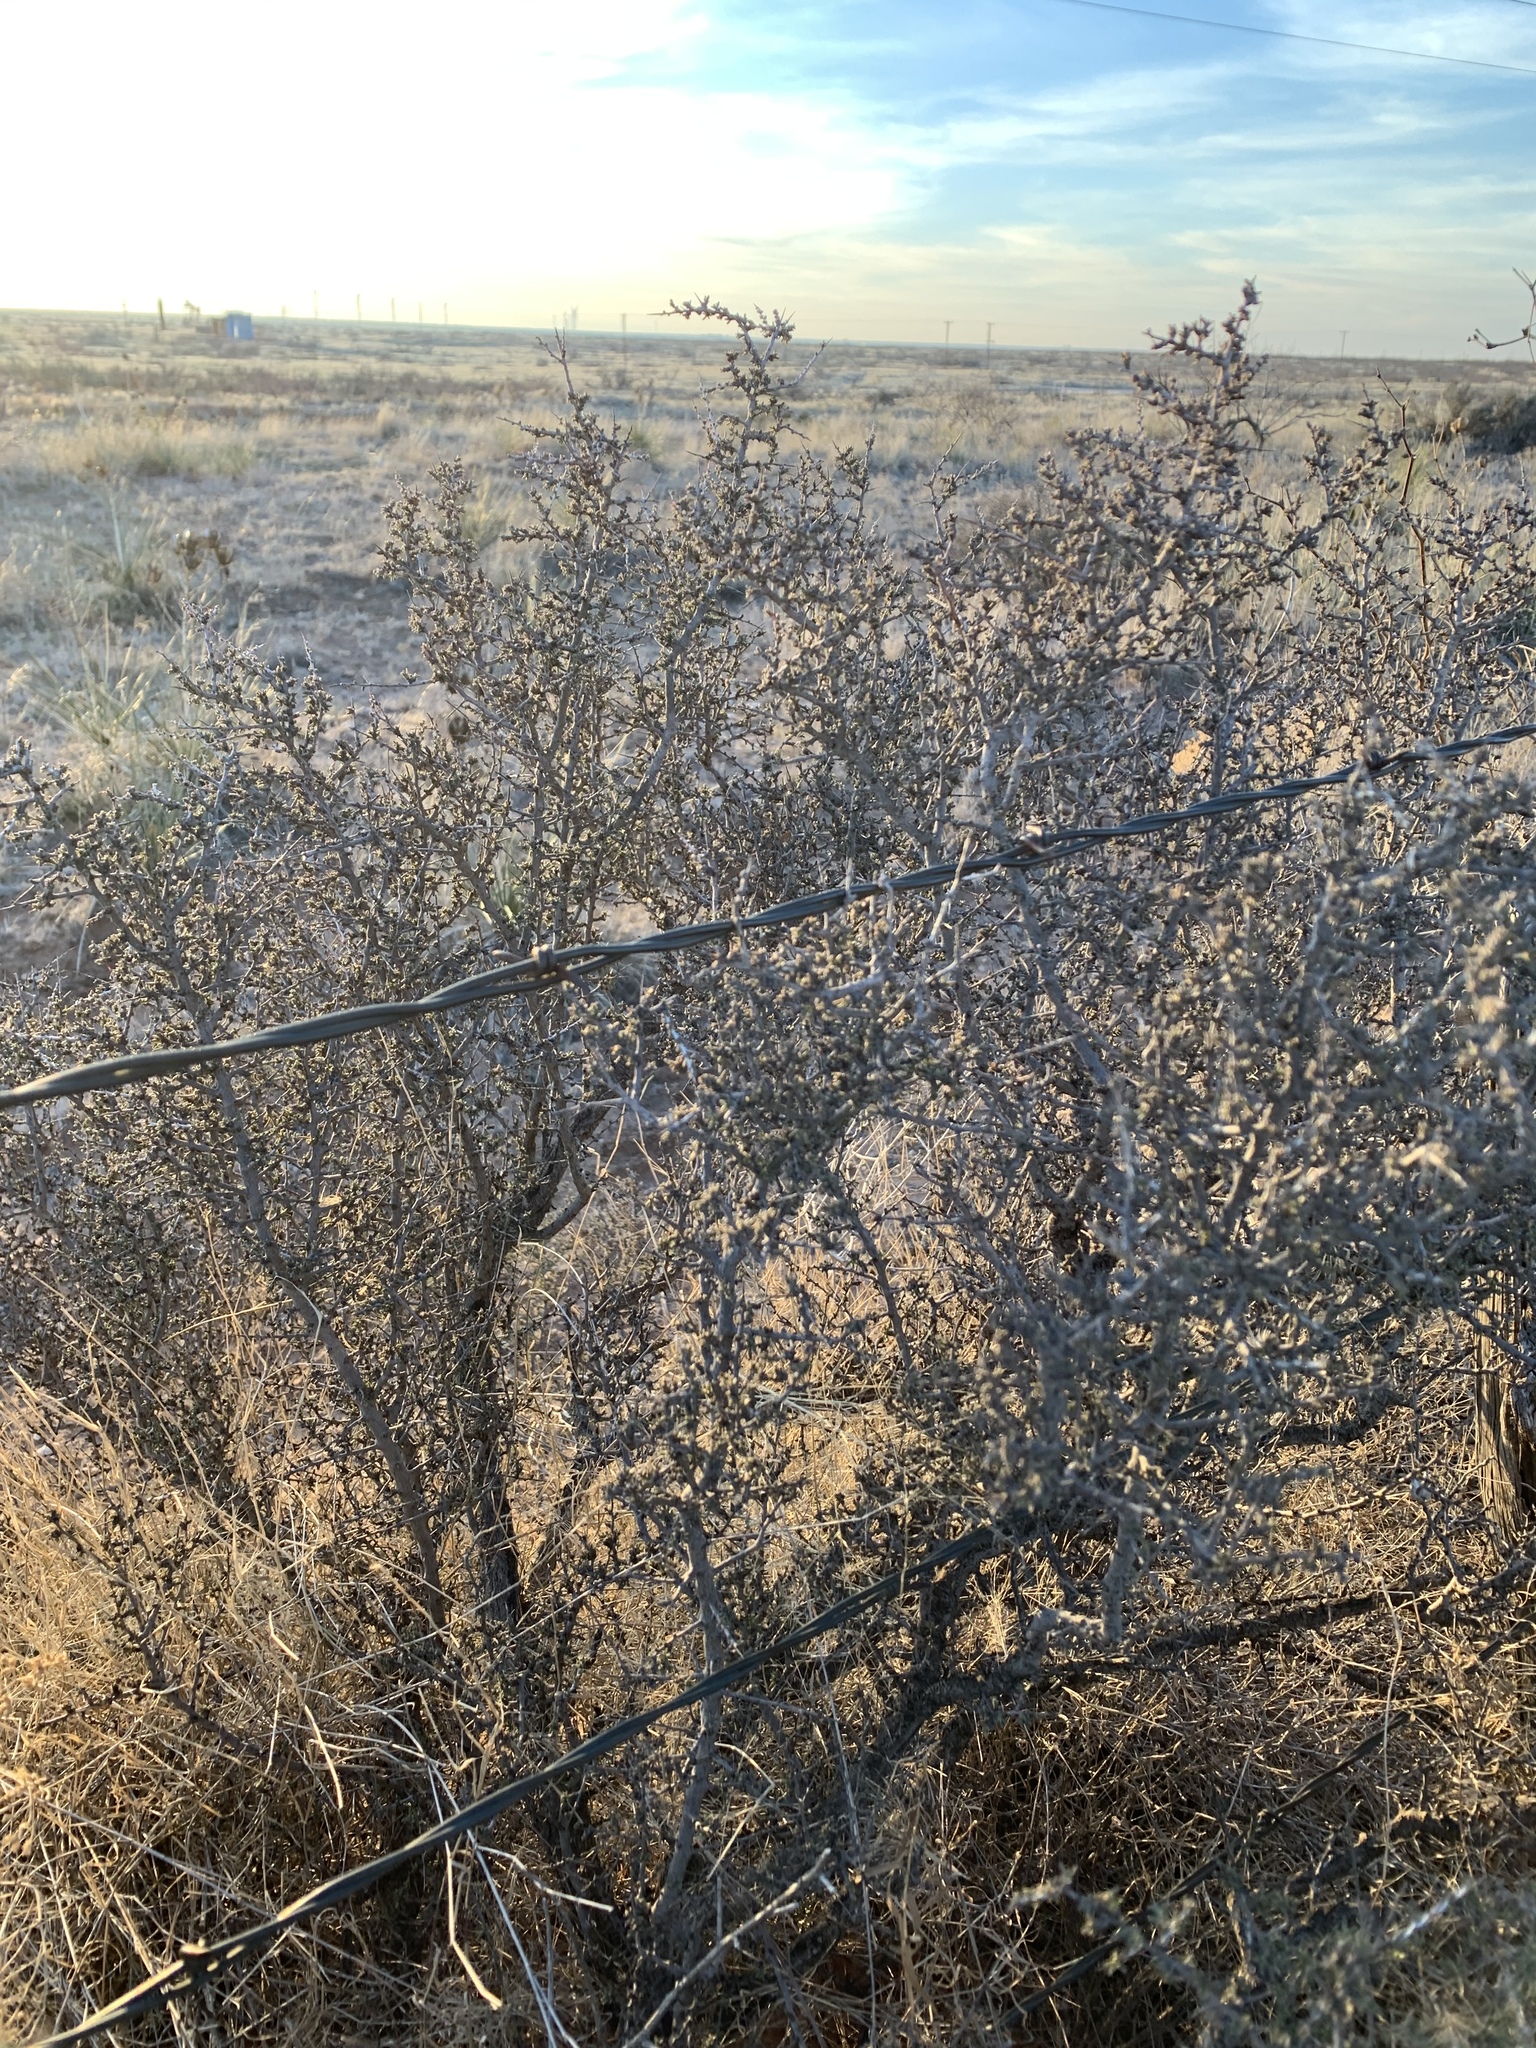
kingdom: Plantae
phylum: Tracheophyta
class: Magnoliopsida
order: Rosales
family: Rhamnaceae
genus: Condalia
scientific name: Condalia ericoides
